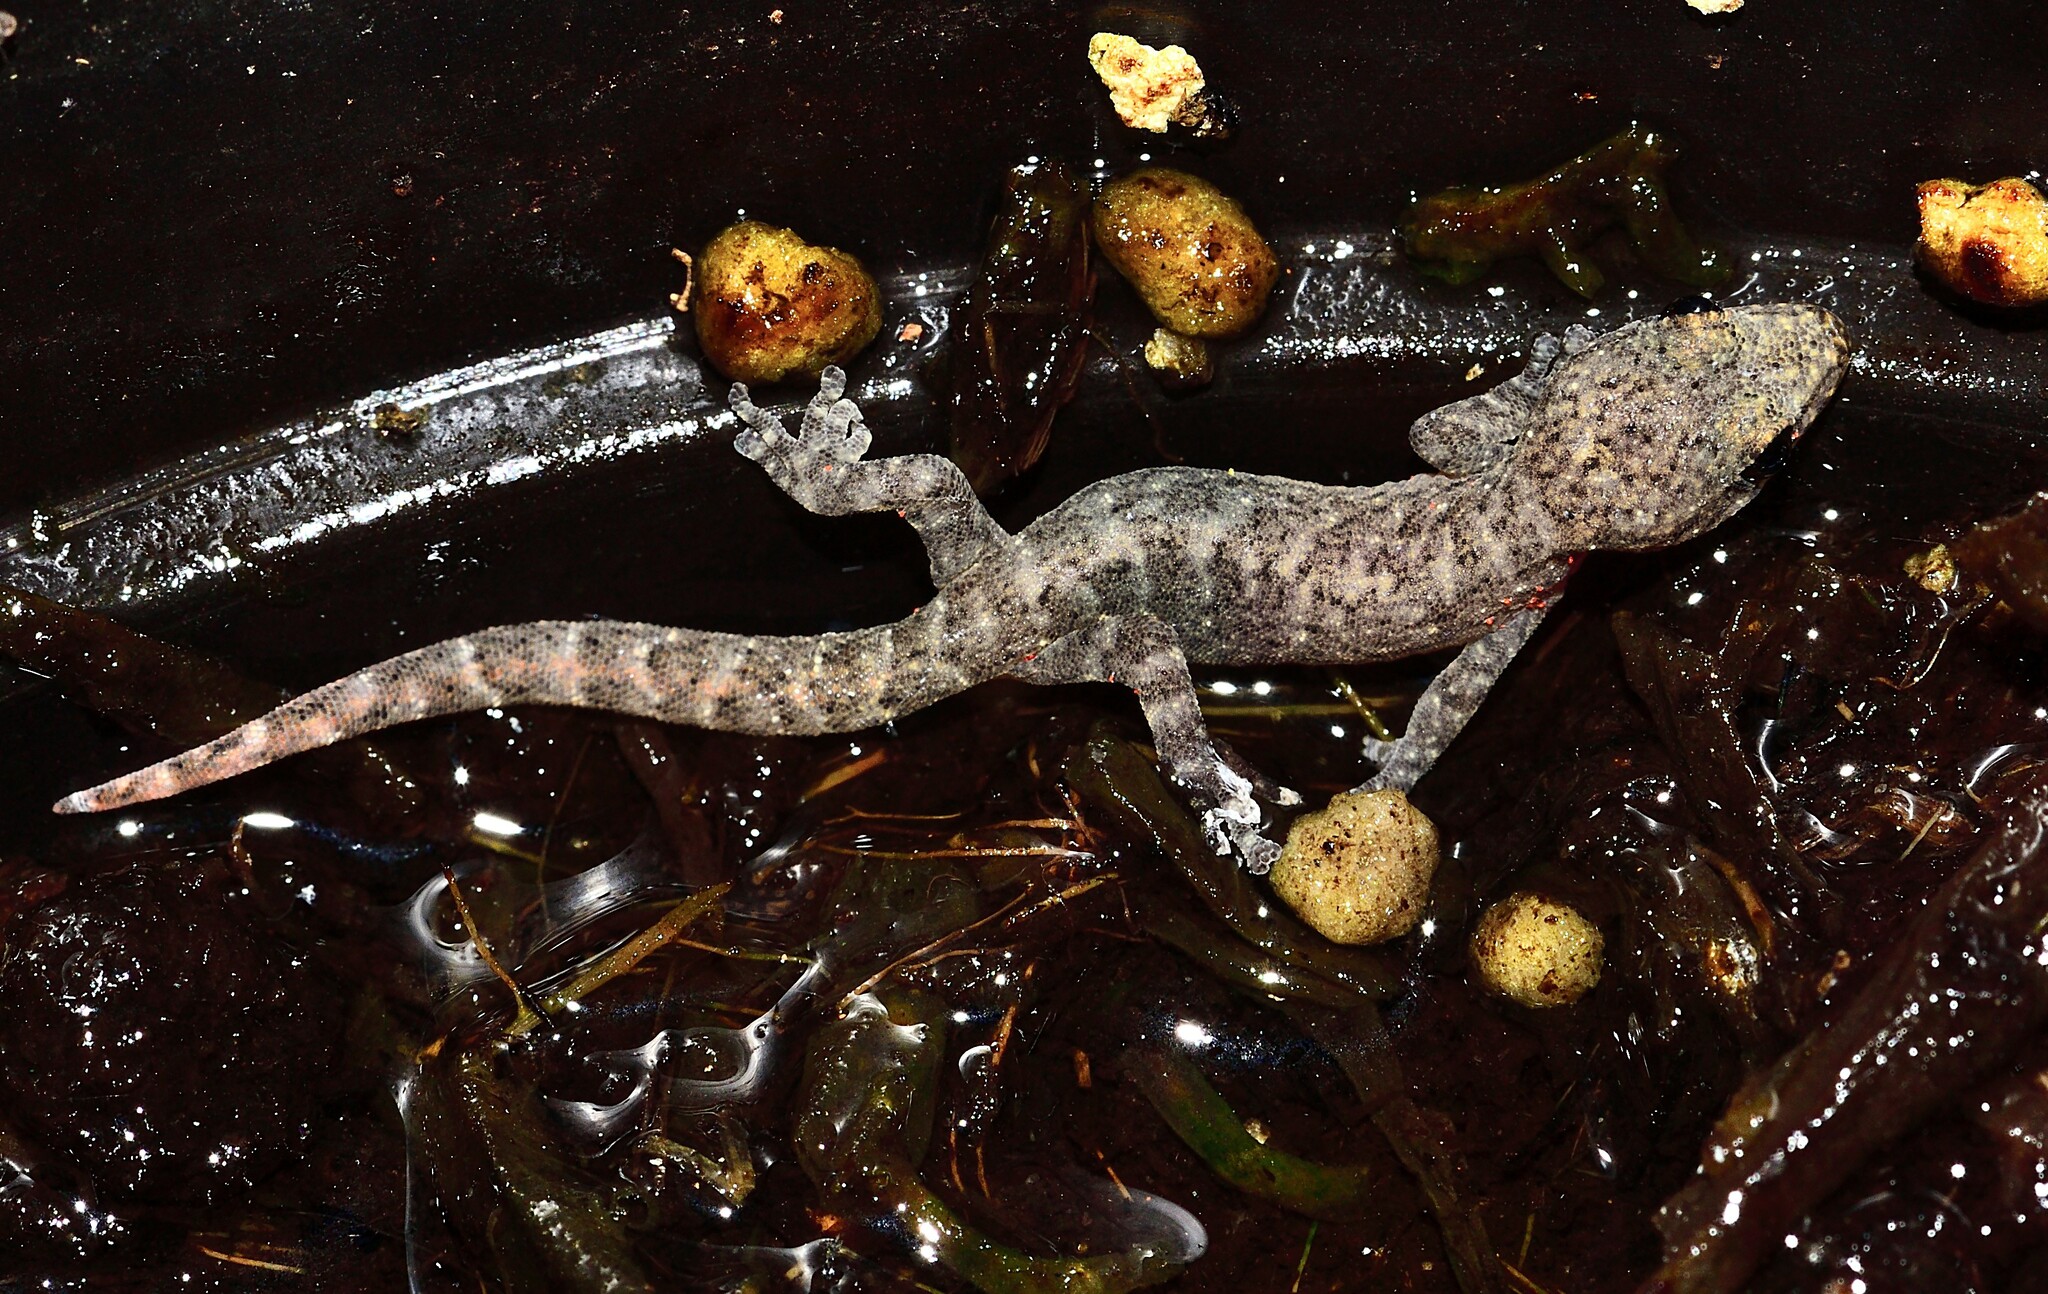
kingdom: Animalia
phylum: Chordata
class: Squamata
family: Gekkonidae
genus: Afrogecko
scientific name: Afrogecko porphyreus
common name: Marbled leaf-toed gecko
